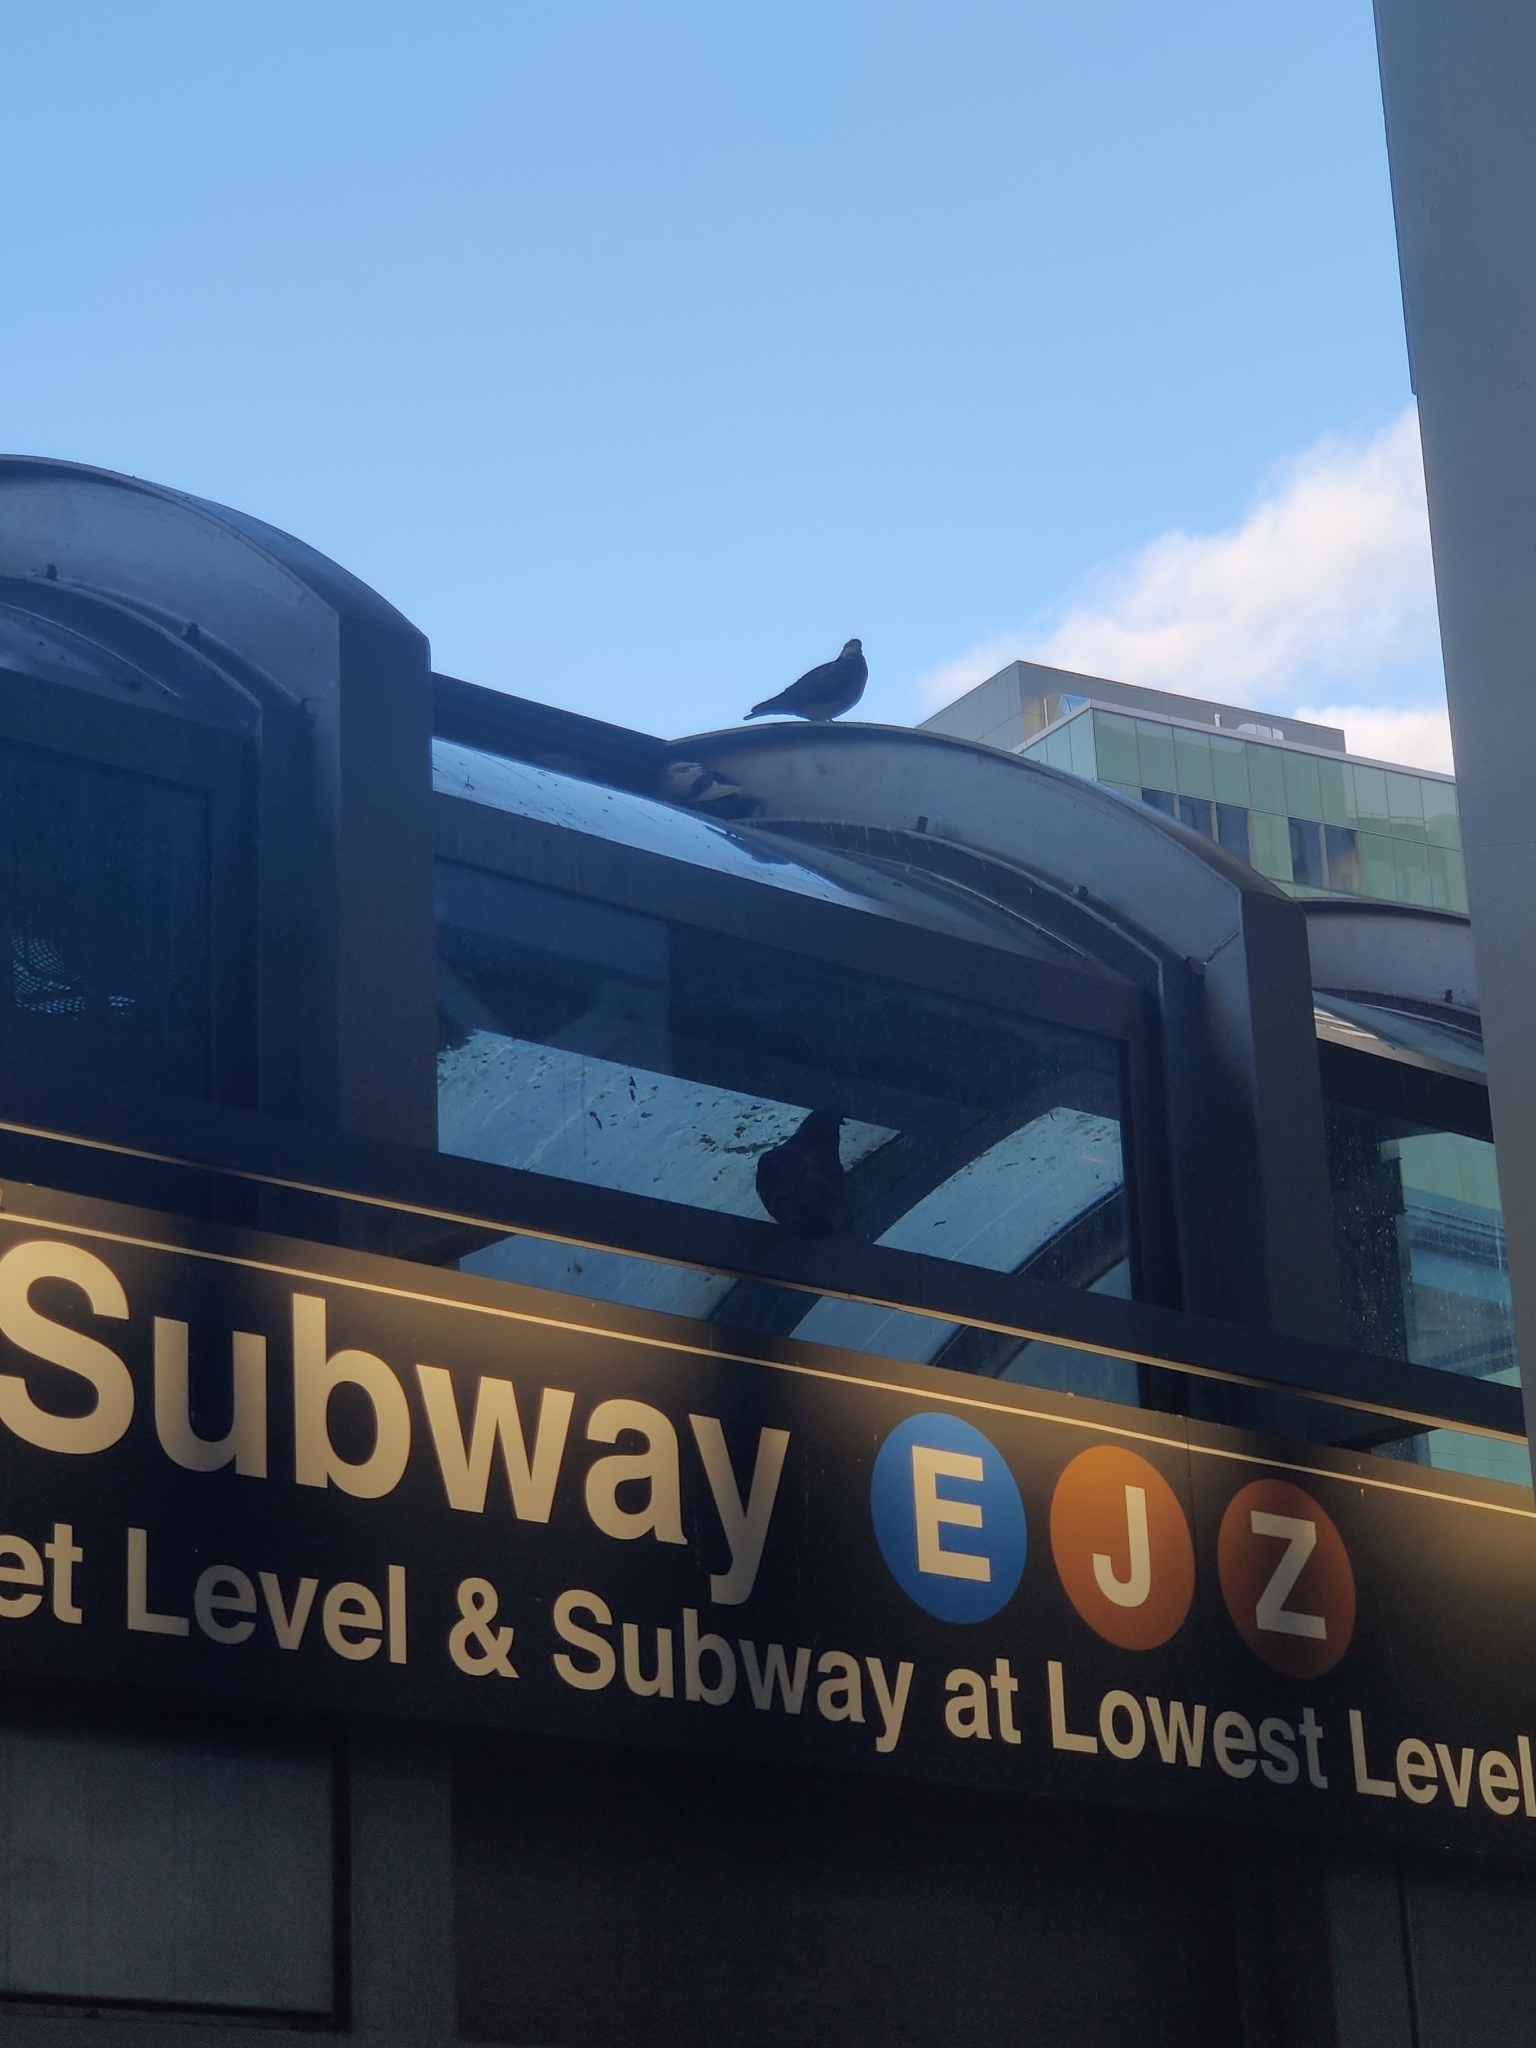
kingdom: Animalia
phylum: Chordata
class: Aves
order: Columbiformes
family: Columbidae
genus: Columba
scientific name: Columba livia
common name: Rock pigeon
